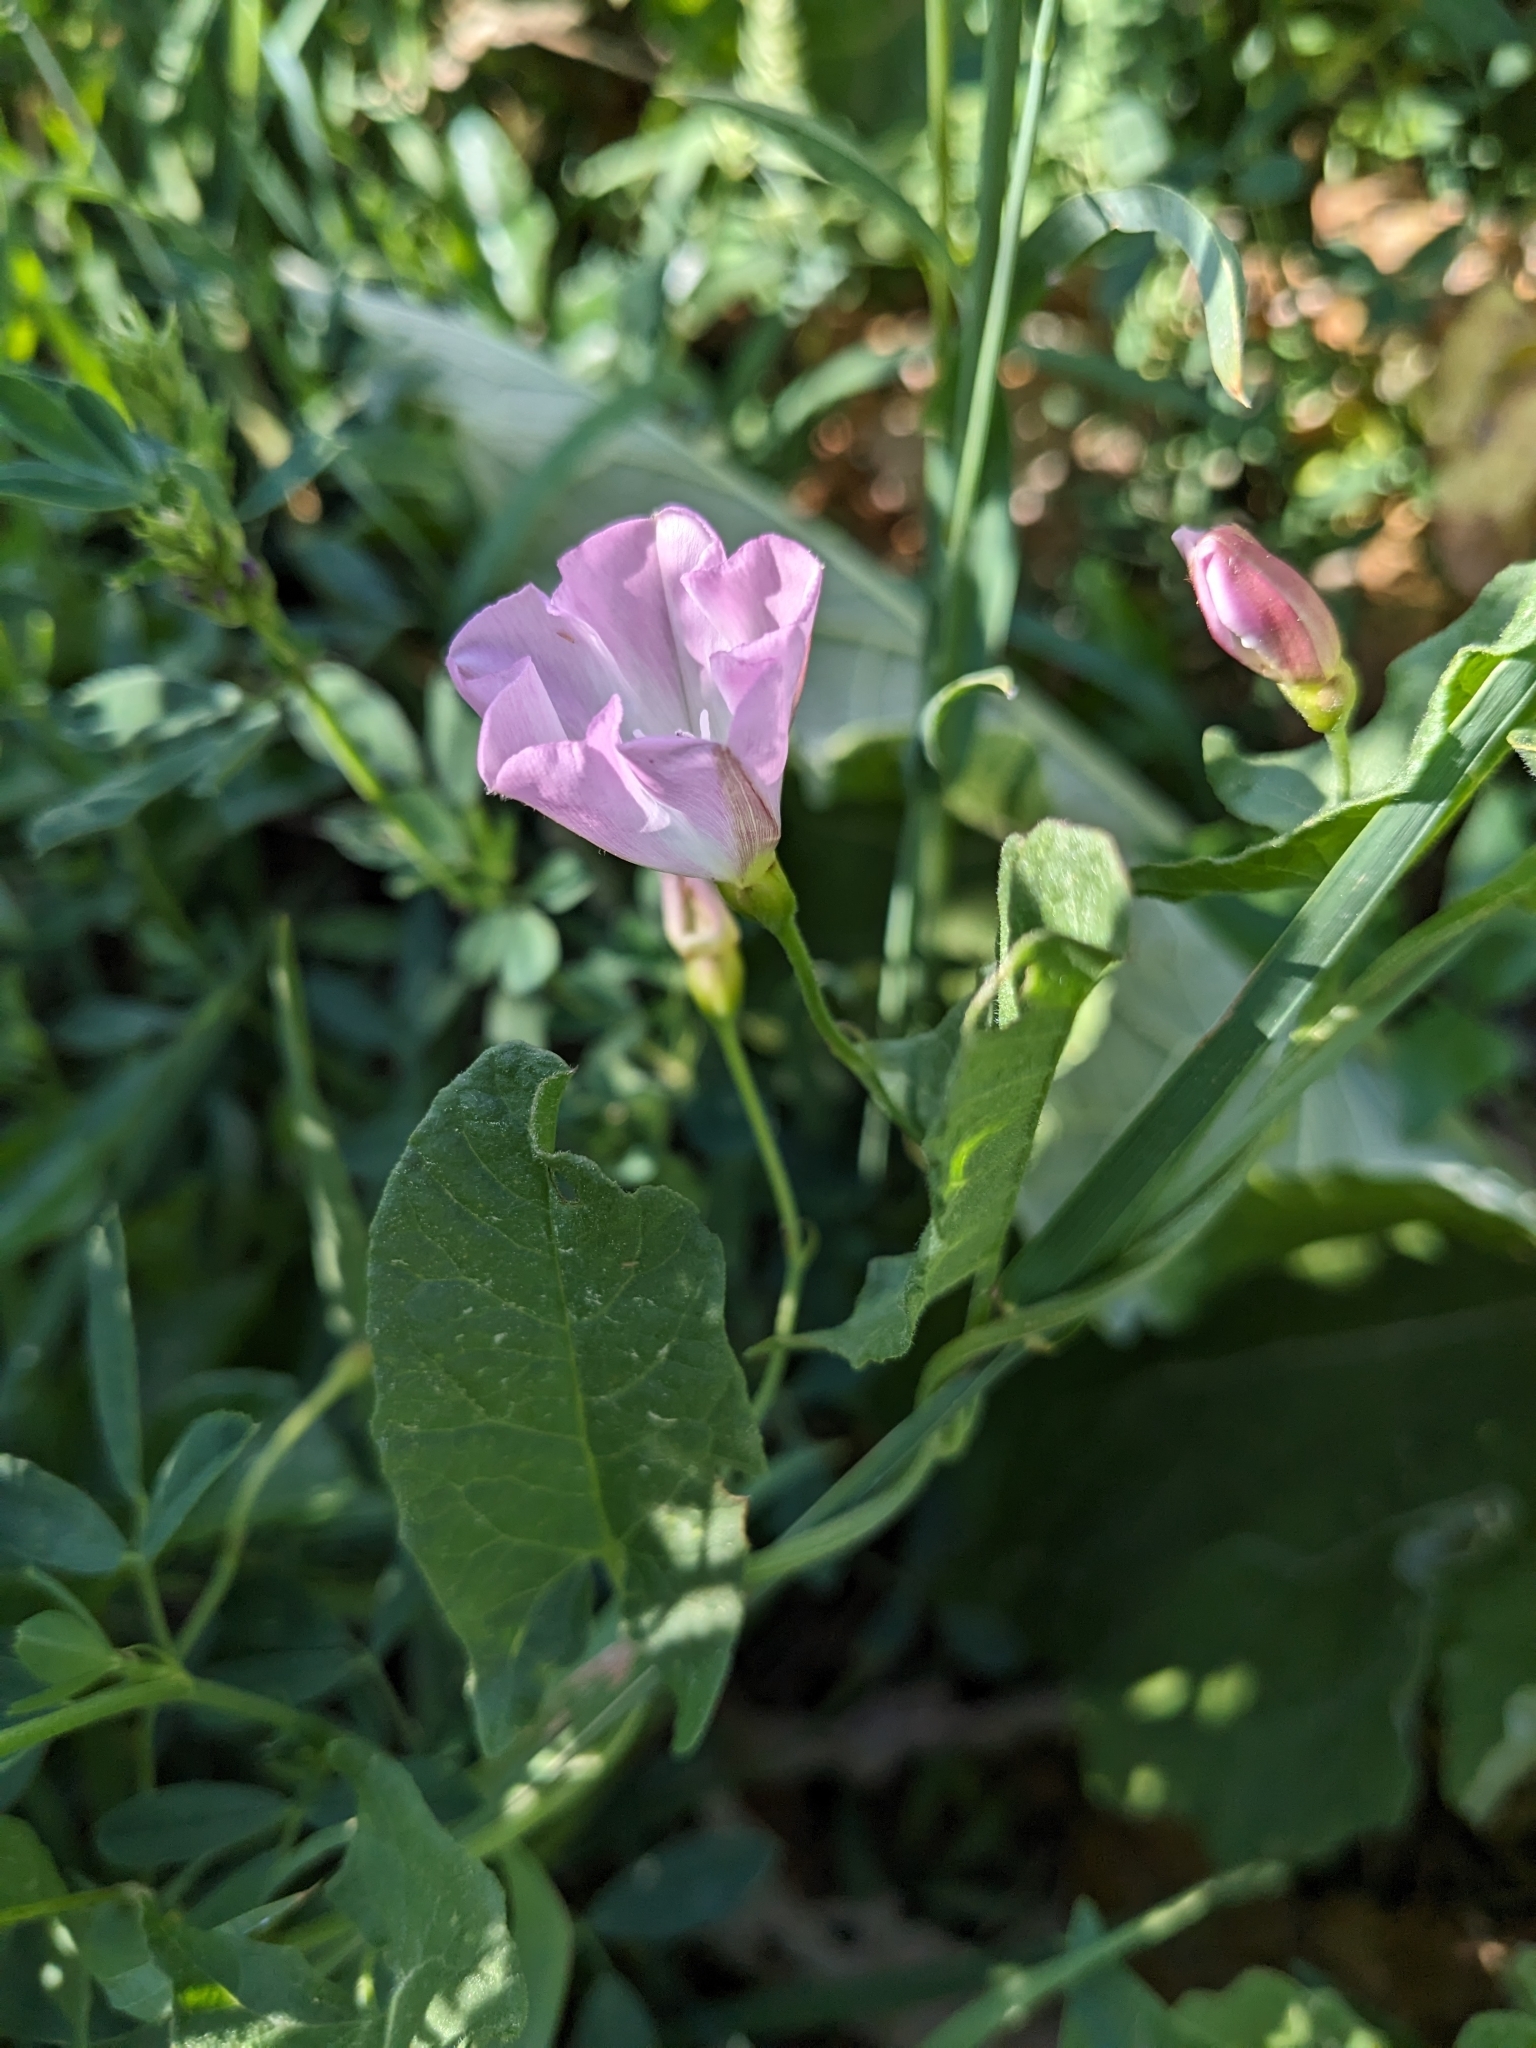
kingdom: Plantae
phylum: Tracheophyta
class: Magnoliopsida
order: Solanales
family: Convolvulaceae
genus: Convolvulus
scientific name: Convolvulus arvensis
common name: Field bindweed
